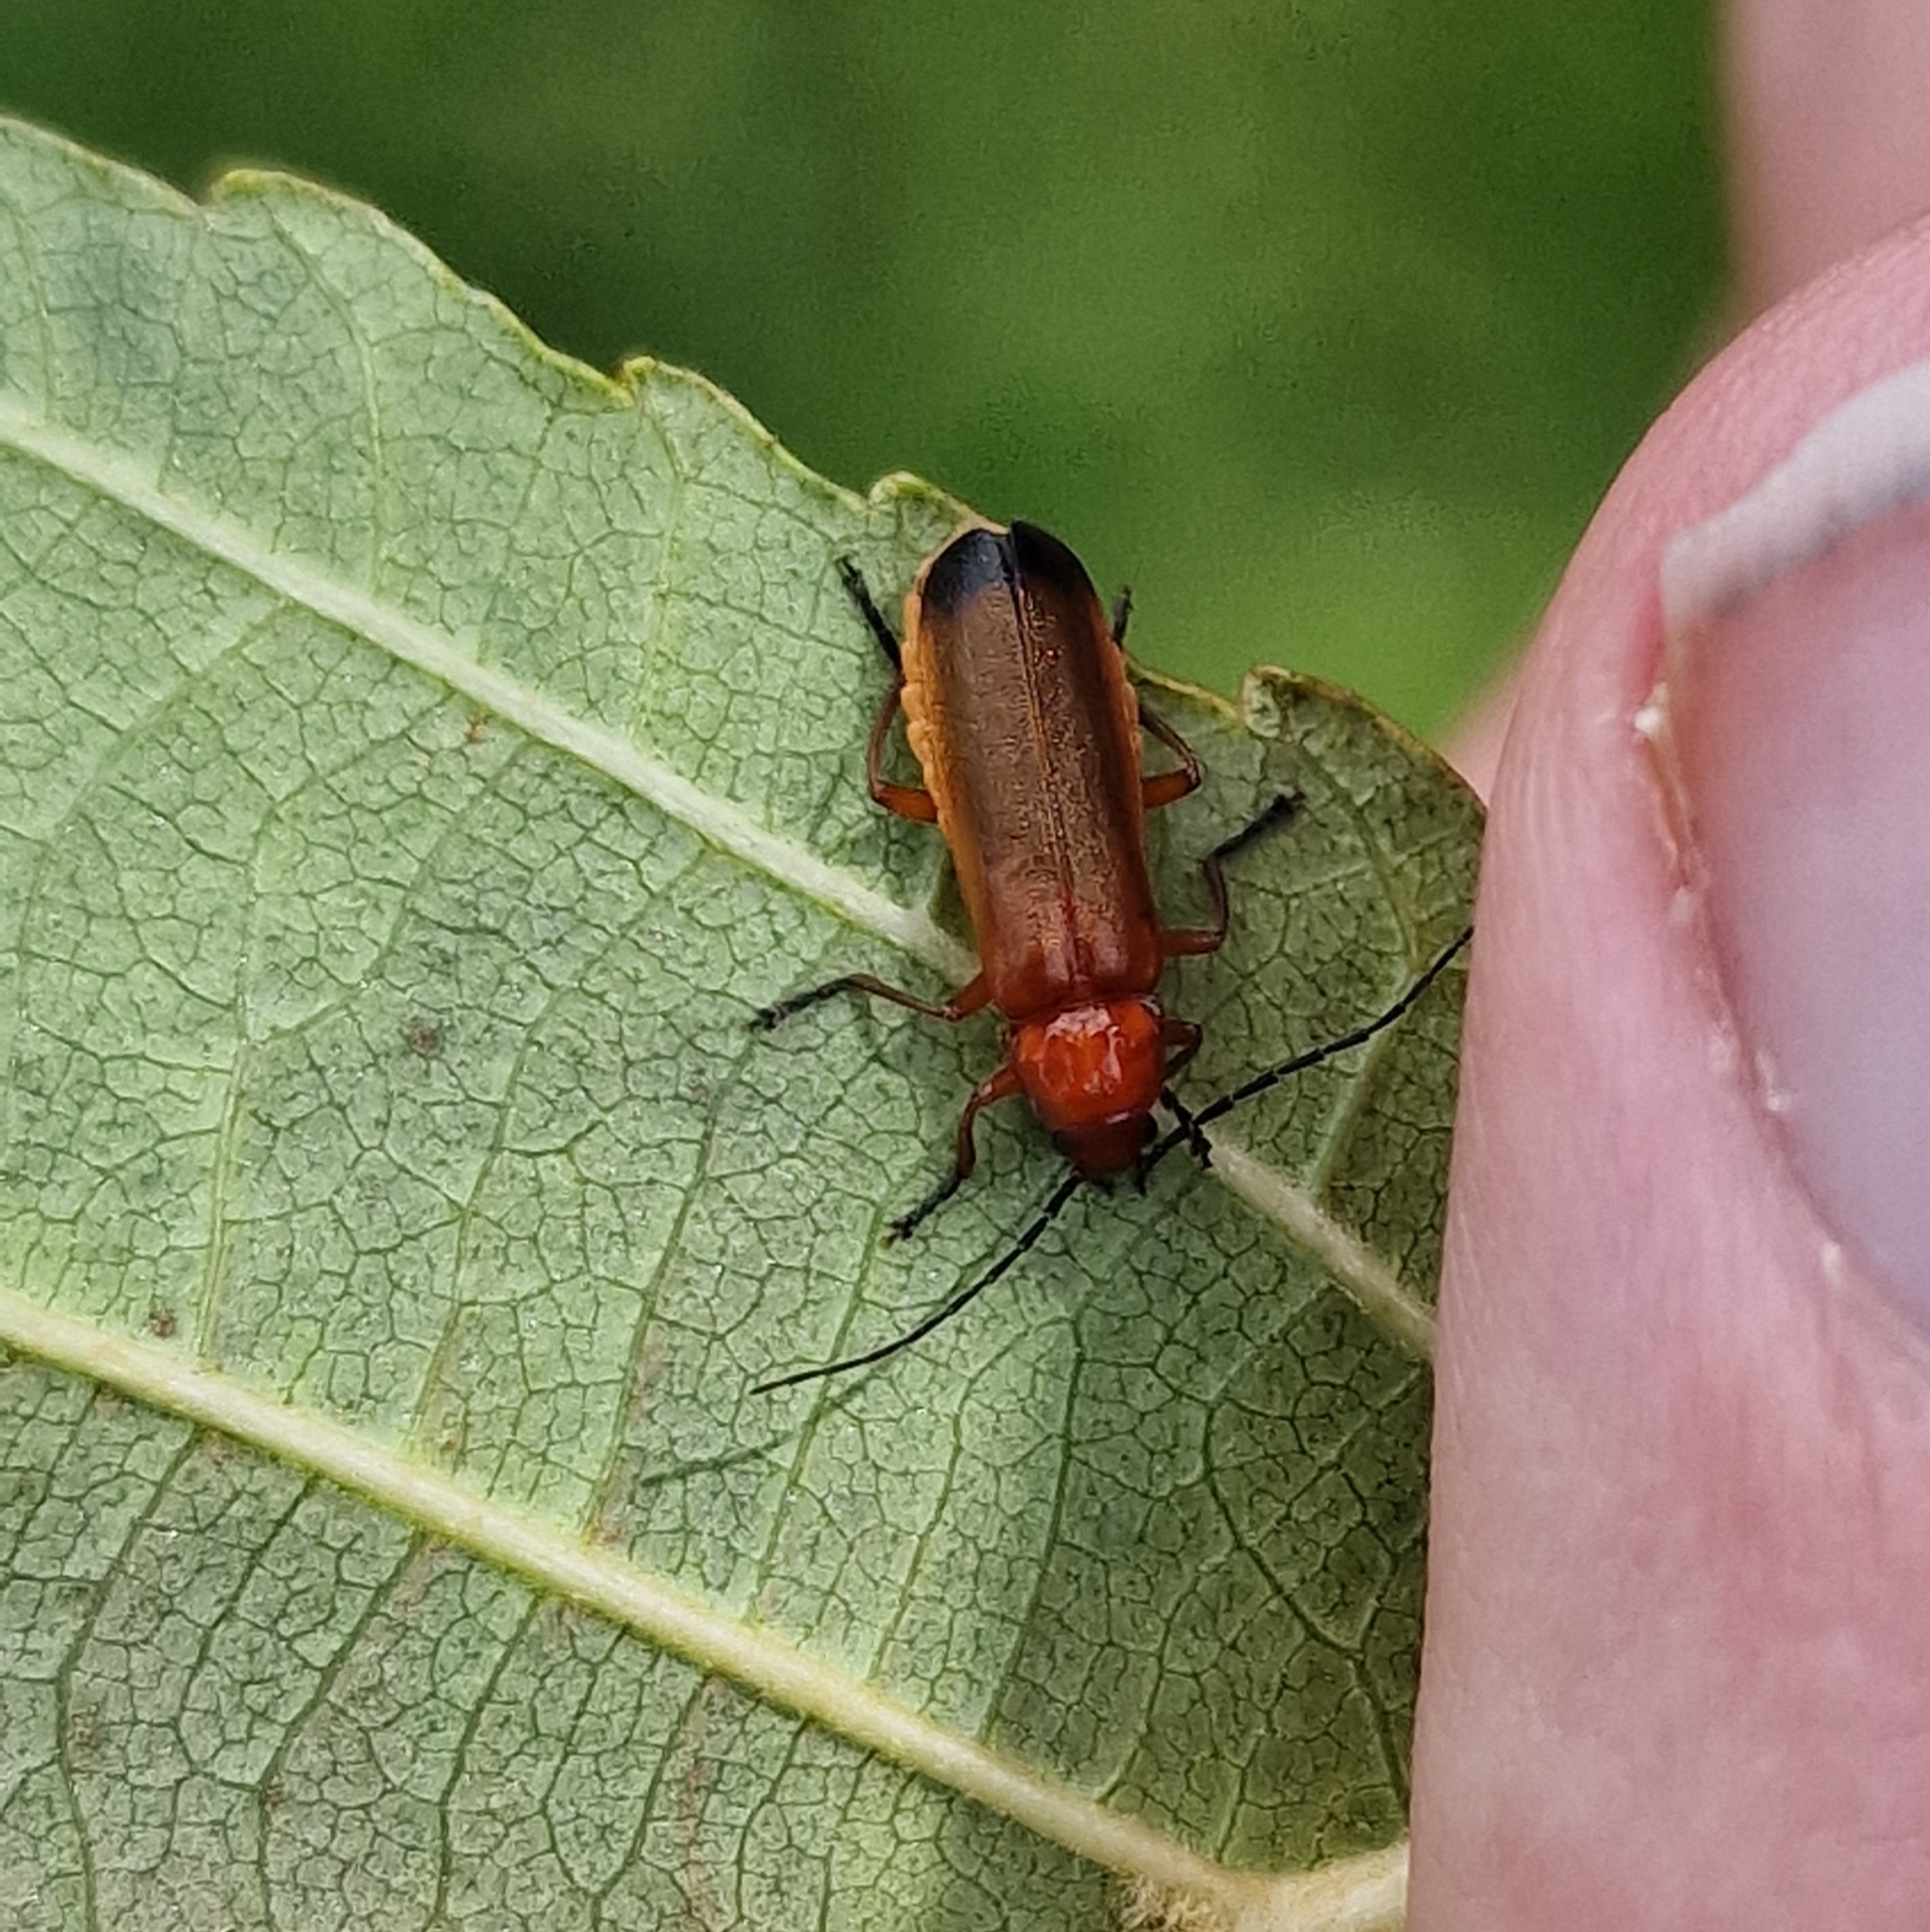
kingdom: Animalia
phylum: Arthropoda
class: Insecta
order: Coleoptera
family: Cantharidae
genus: Rhagonycha
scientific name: Rhagonycha fulva
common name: Common red soldier beetle
